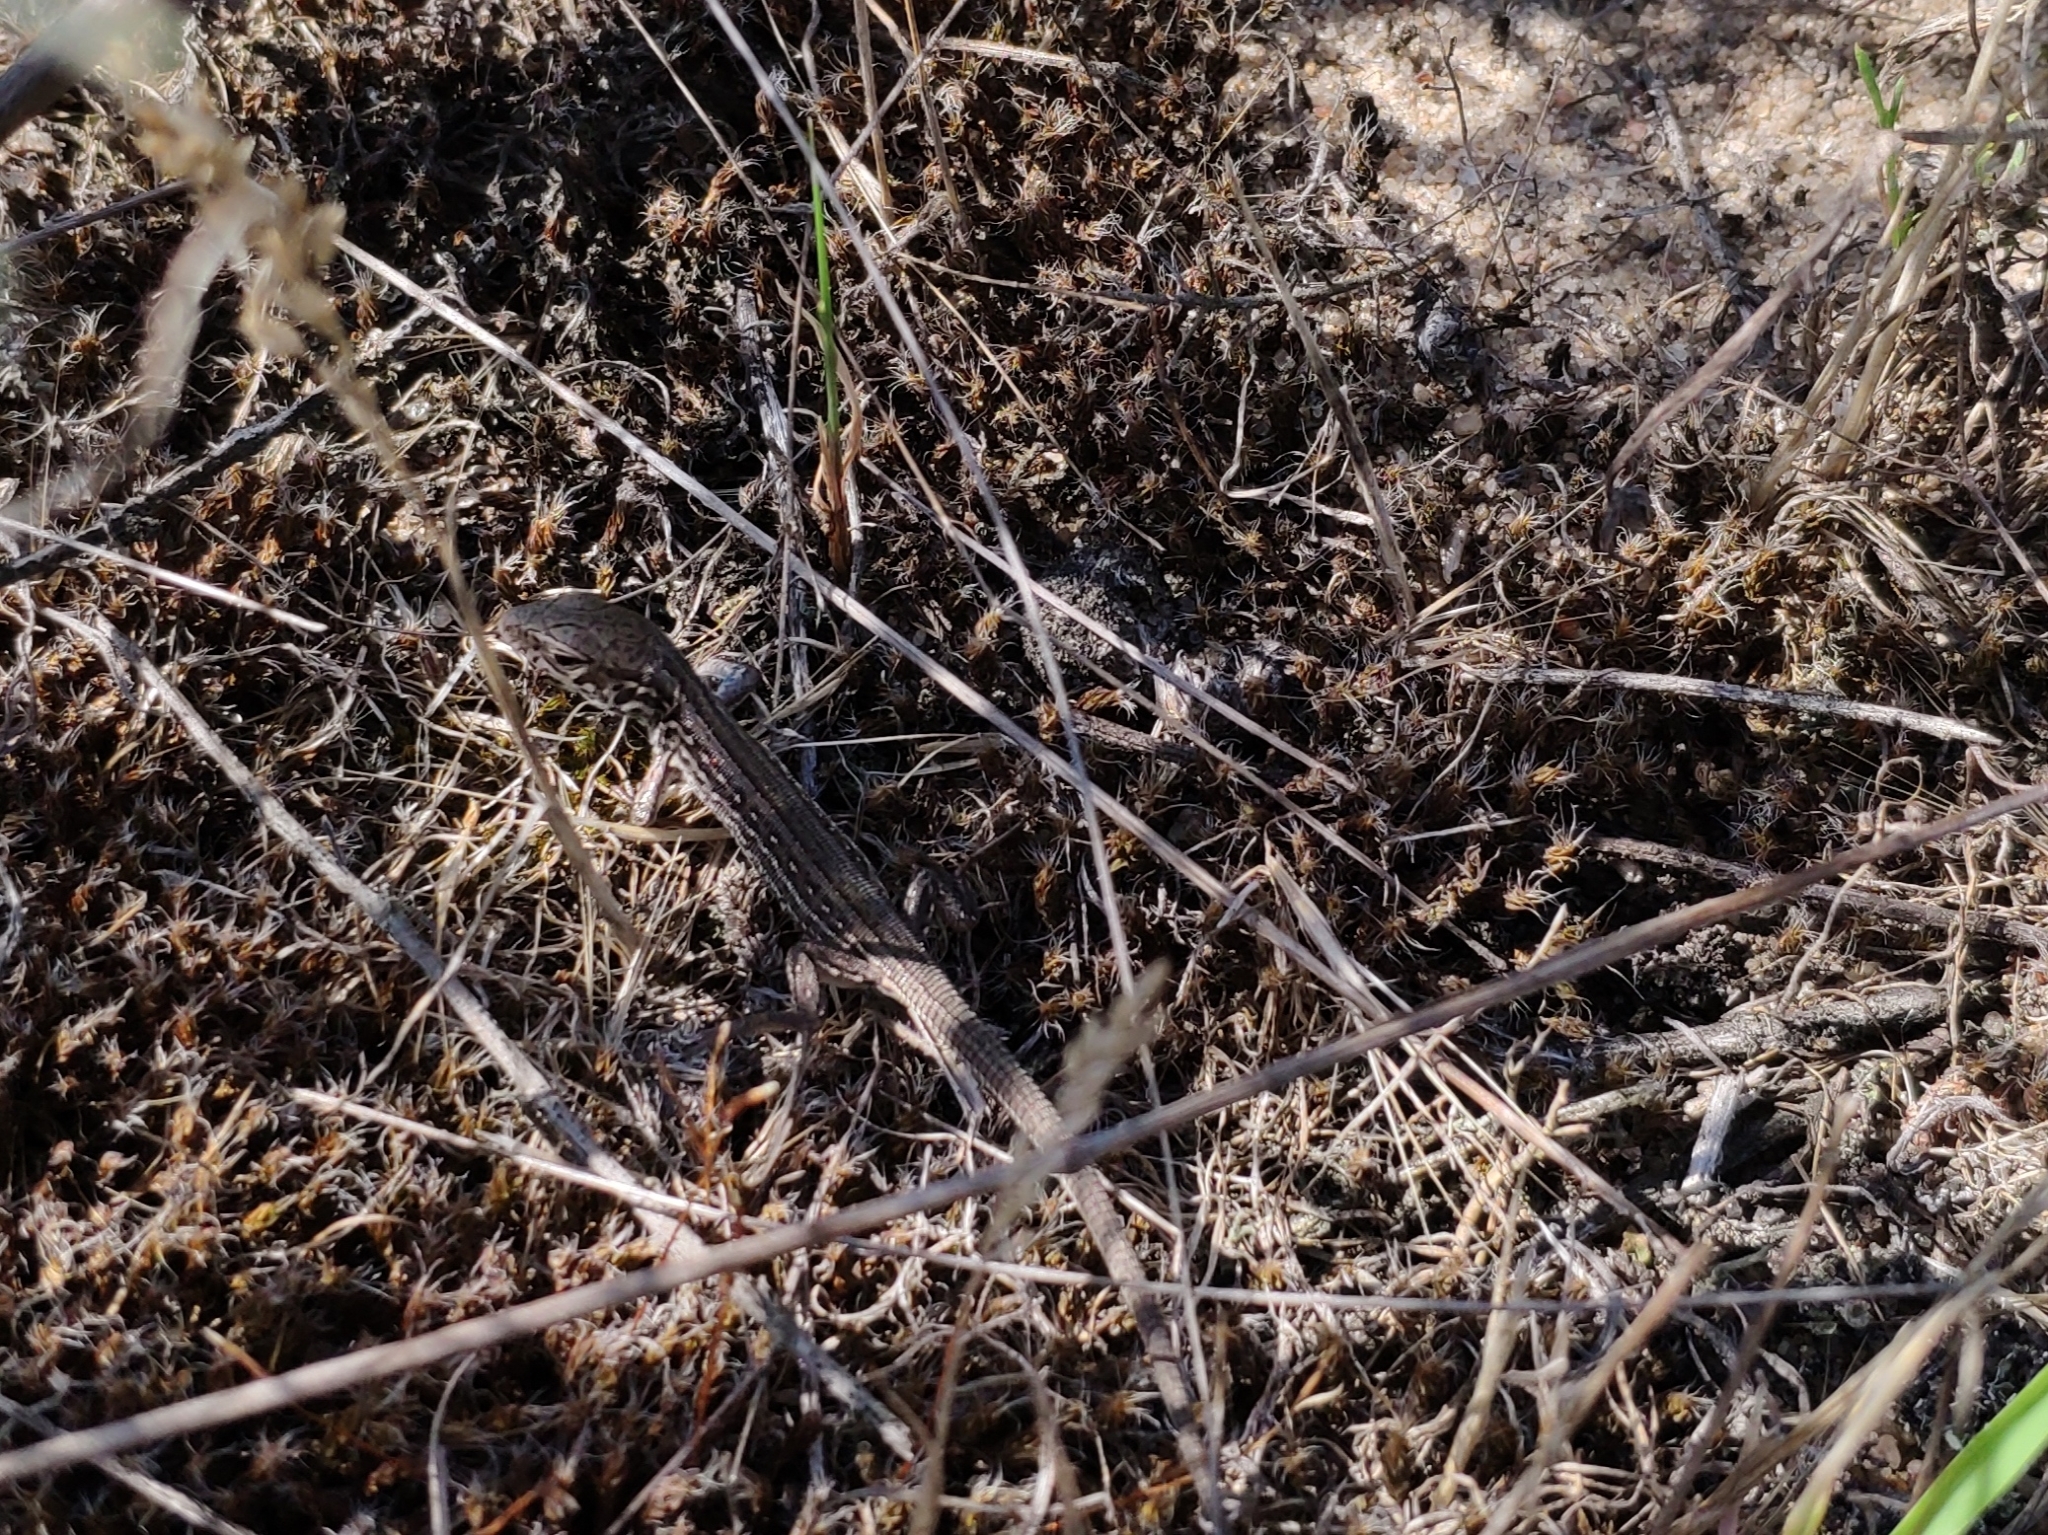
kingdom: Animalia
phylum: Chordata
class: Squamata
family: Lacertidae
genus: Lacerta
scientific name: Lacerta agilis
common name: Sand lizard
